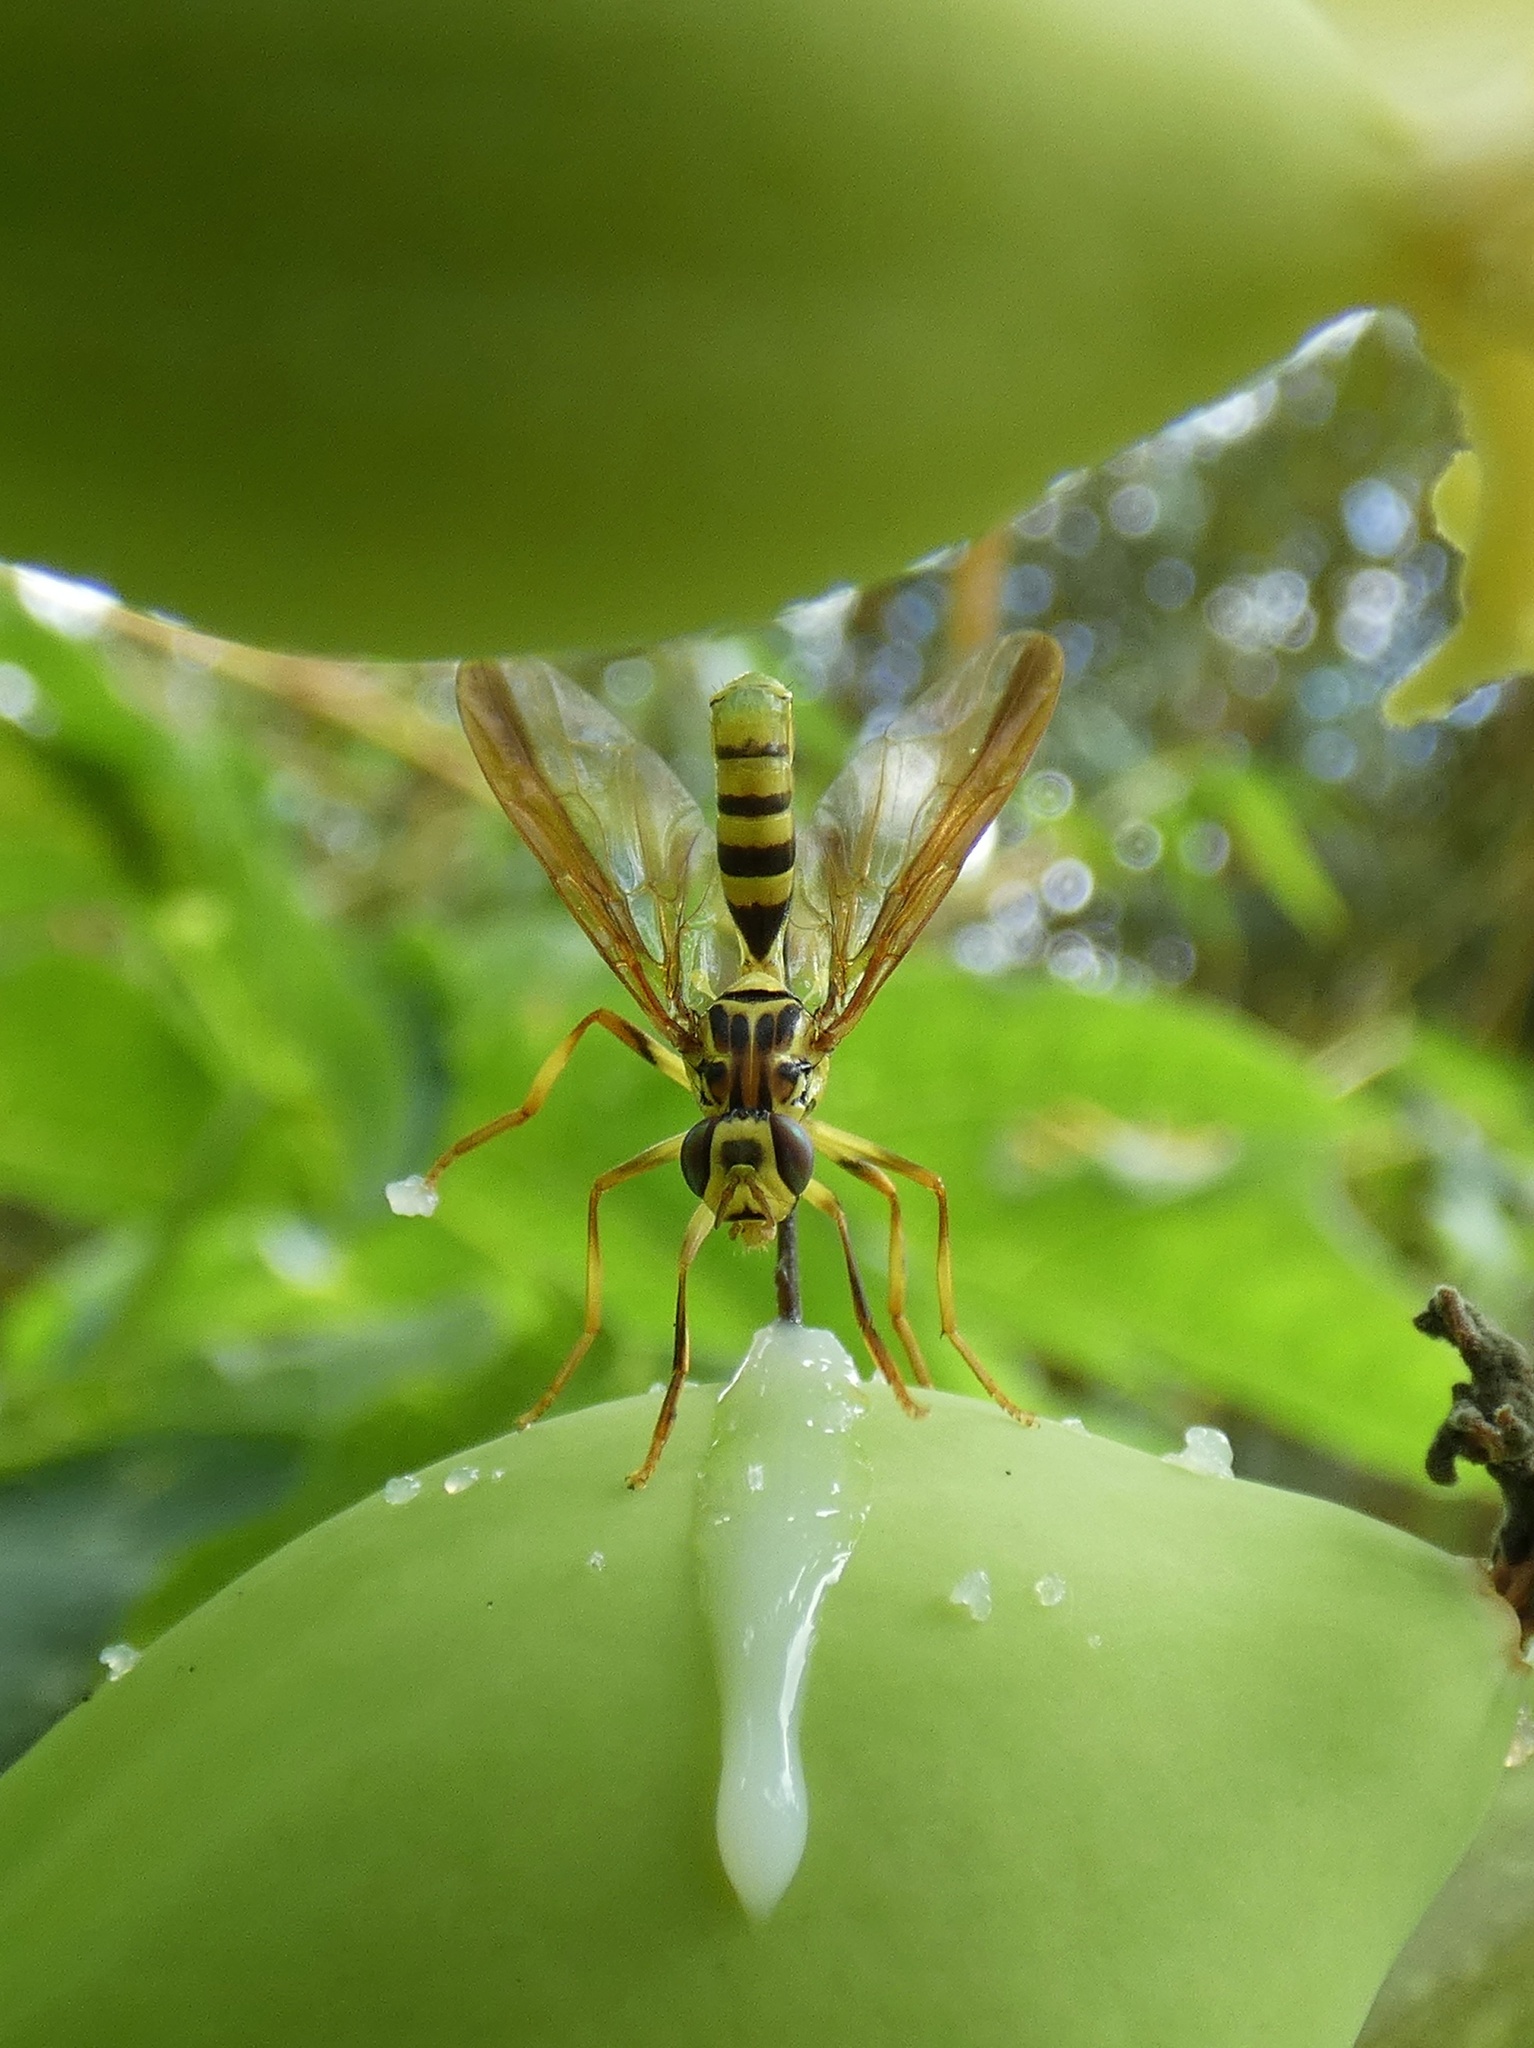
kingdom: Animalia
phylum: Arthropoda
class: Insecta
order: Diptera
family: Tephritidae
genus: Anastrepha
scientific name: Anastrepha curvicauda
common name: Papaya fruit fly
